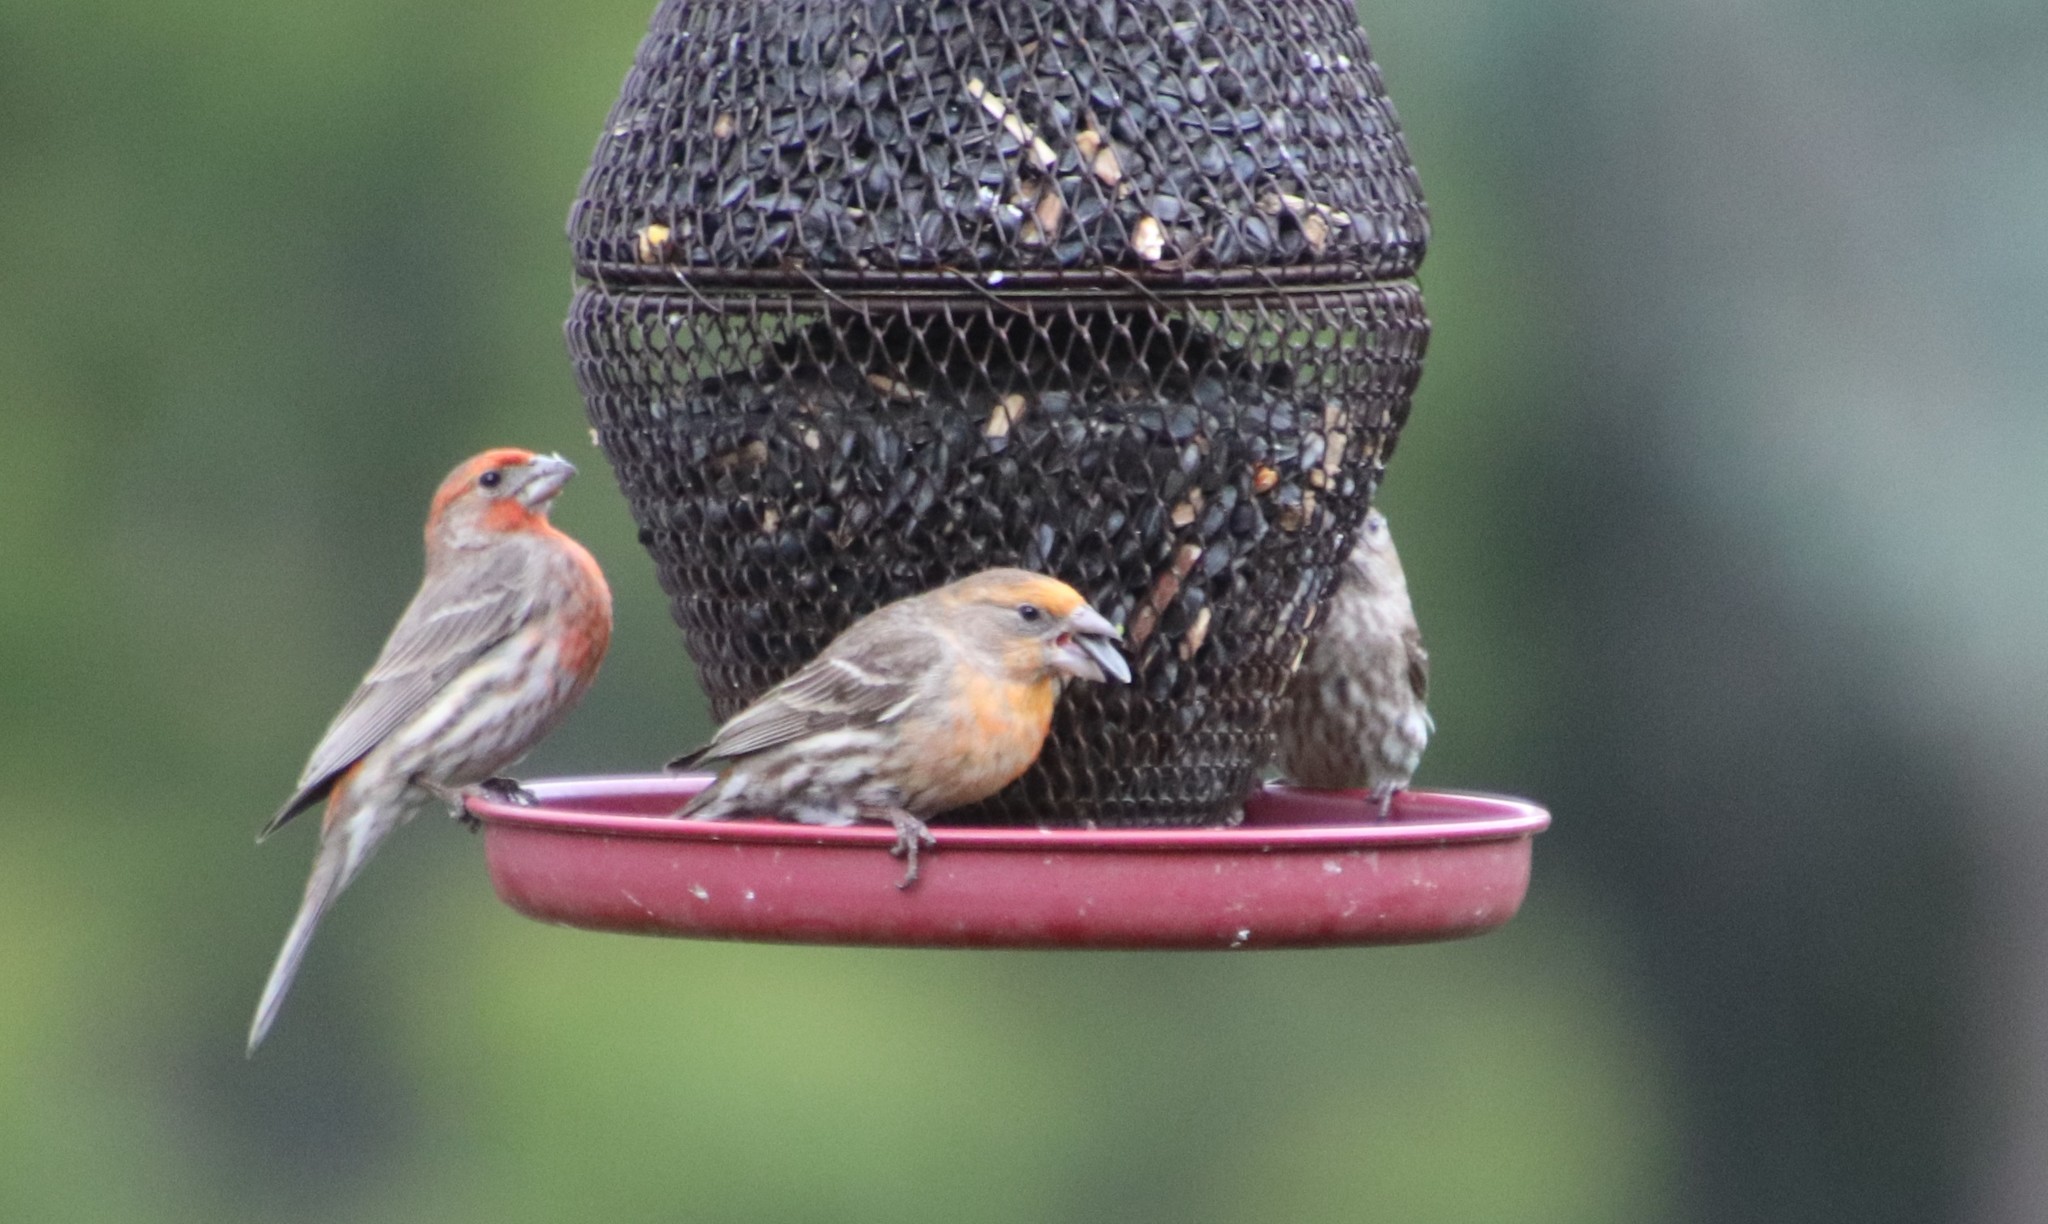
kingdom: Animalia
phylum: Chordata
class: Aves
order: Passeriformes
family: Fringillidae
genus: Haemorhous
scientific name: Haemorhous mexicanus
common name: House finch
